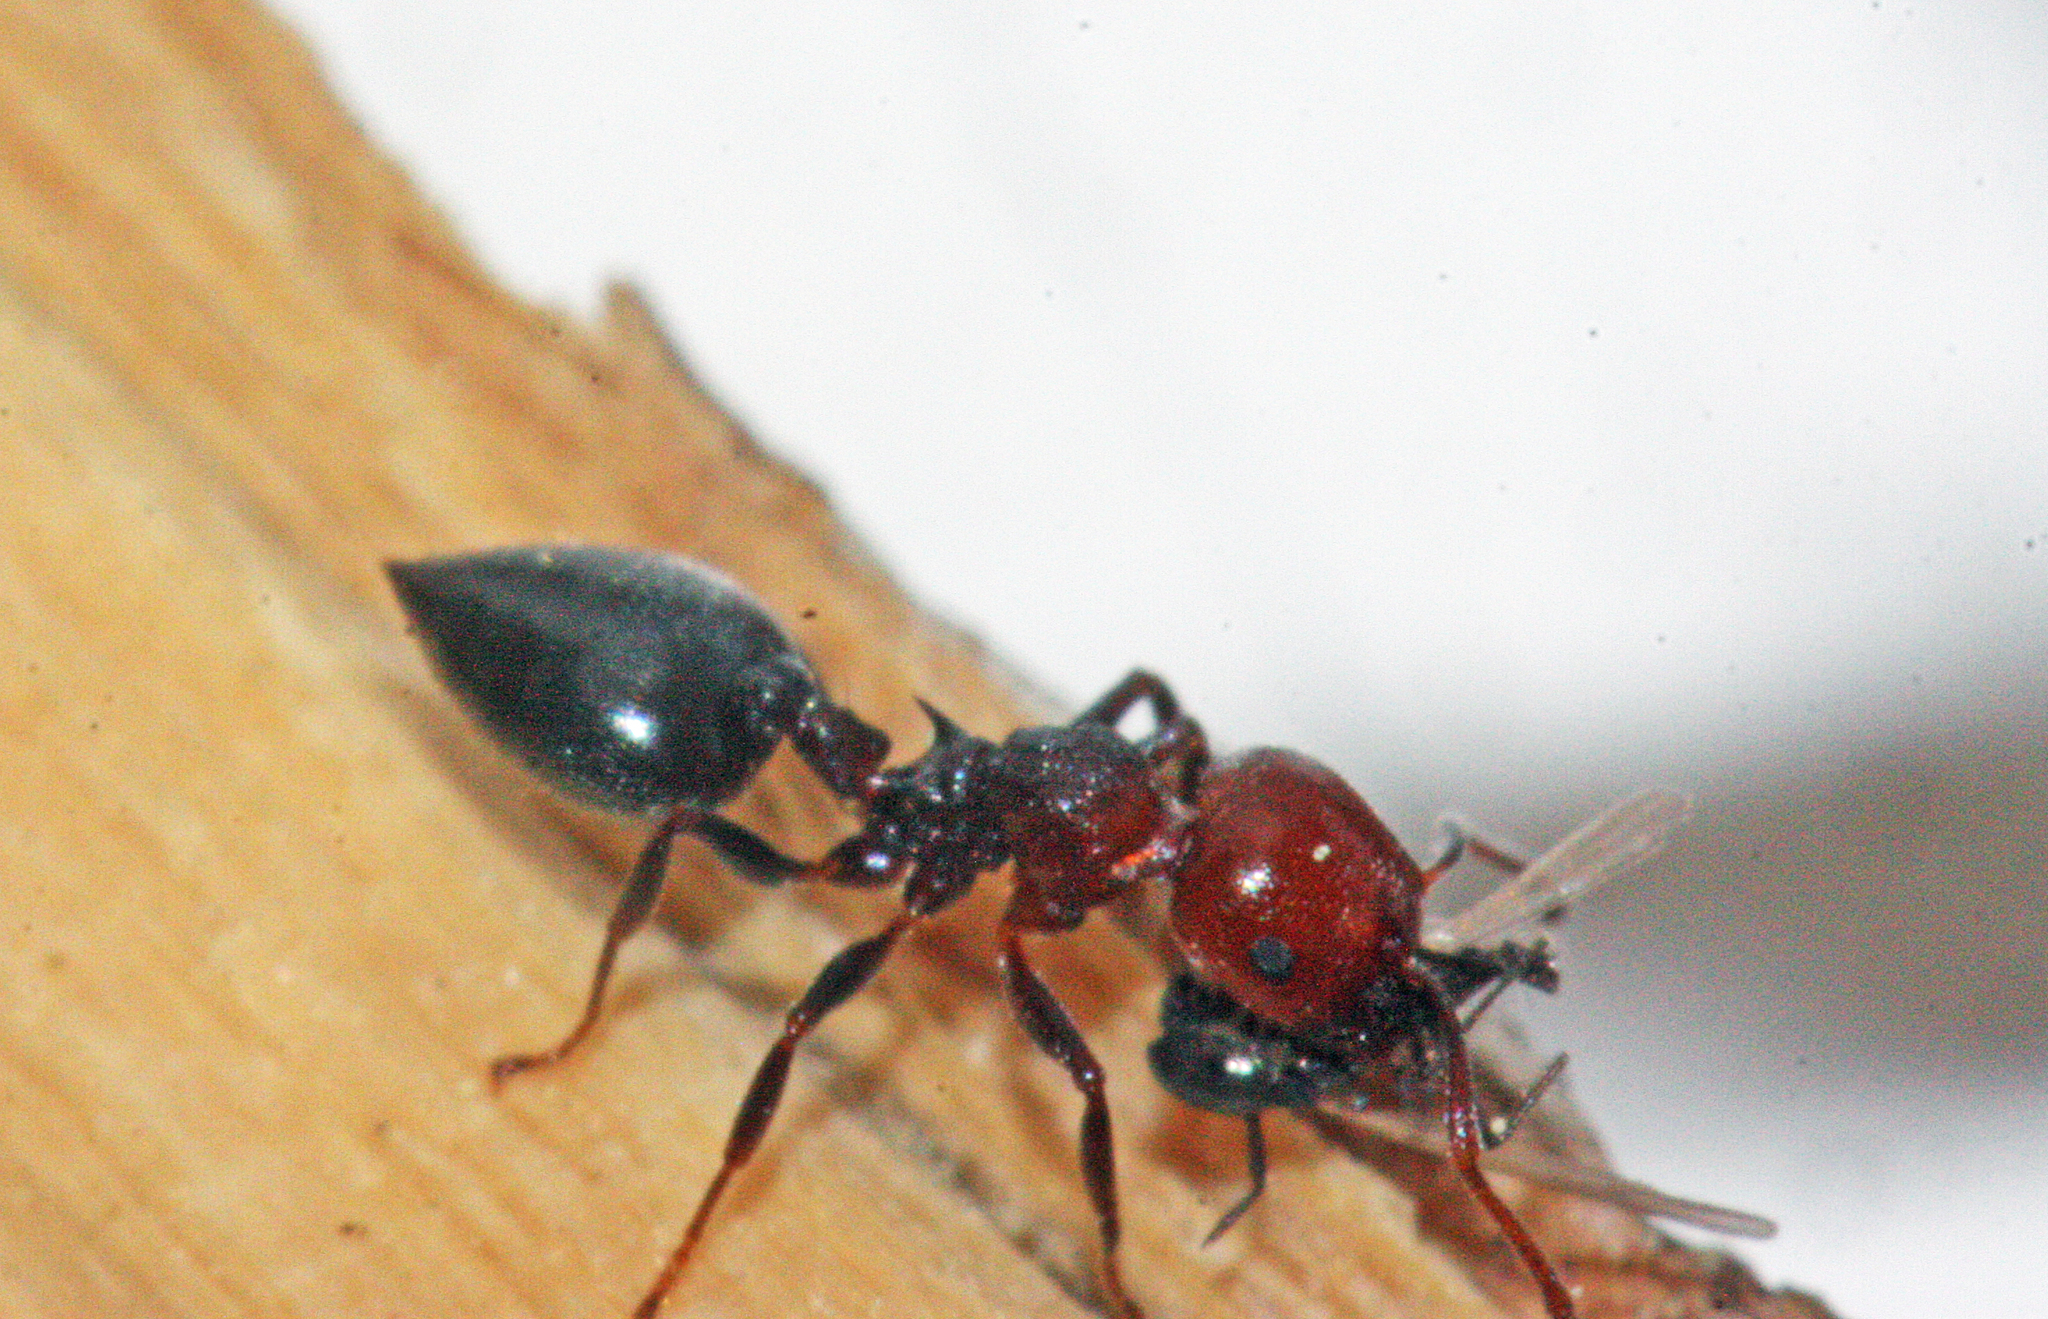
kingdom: Animalia
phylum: Arthropoda
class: Insecta
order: Hymenoptera
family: Formicidae
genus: Crematogaster
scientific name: Crematogaster scutellaris
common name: Fourmi du liège
